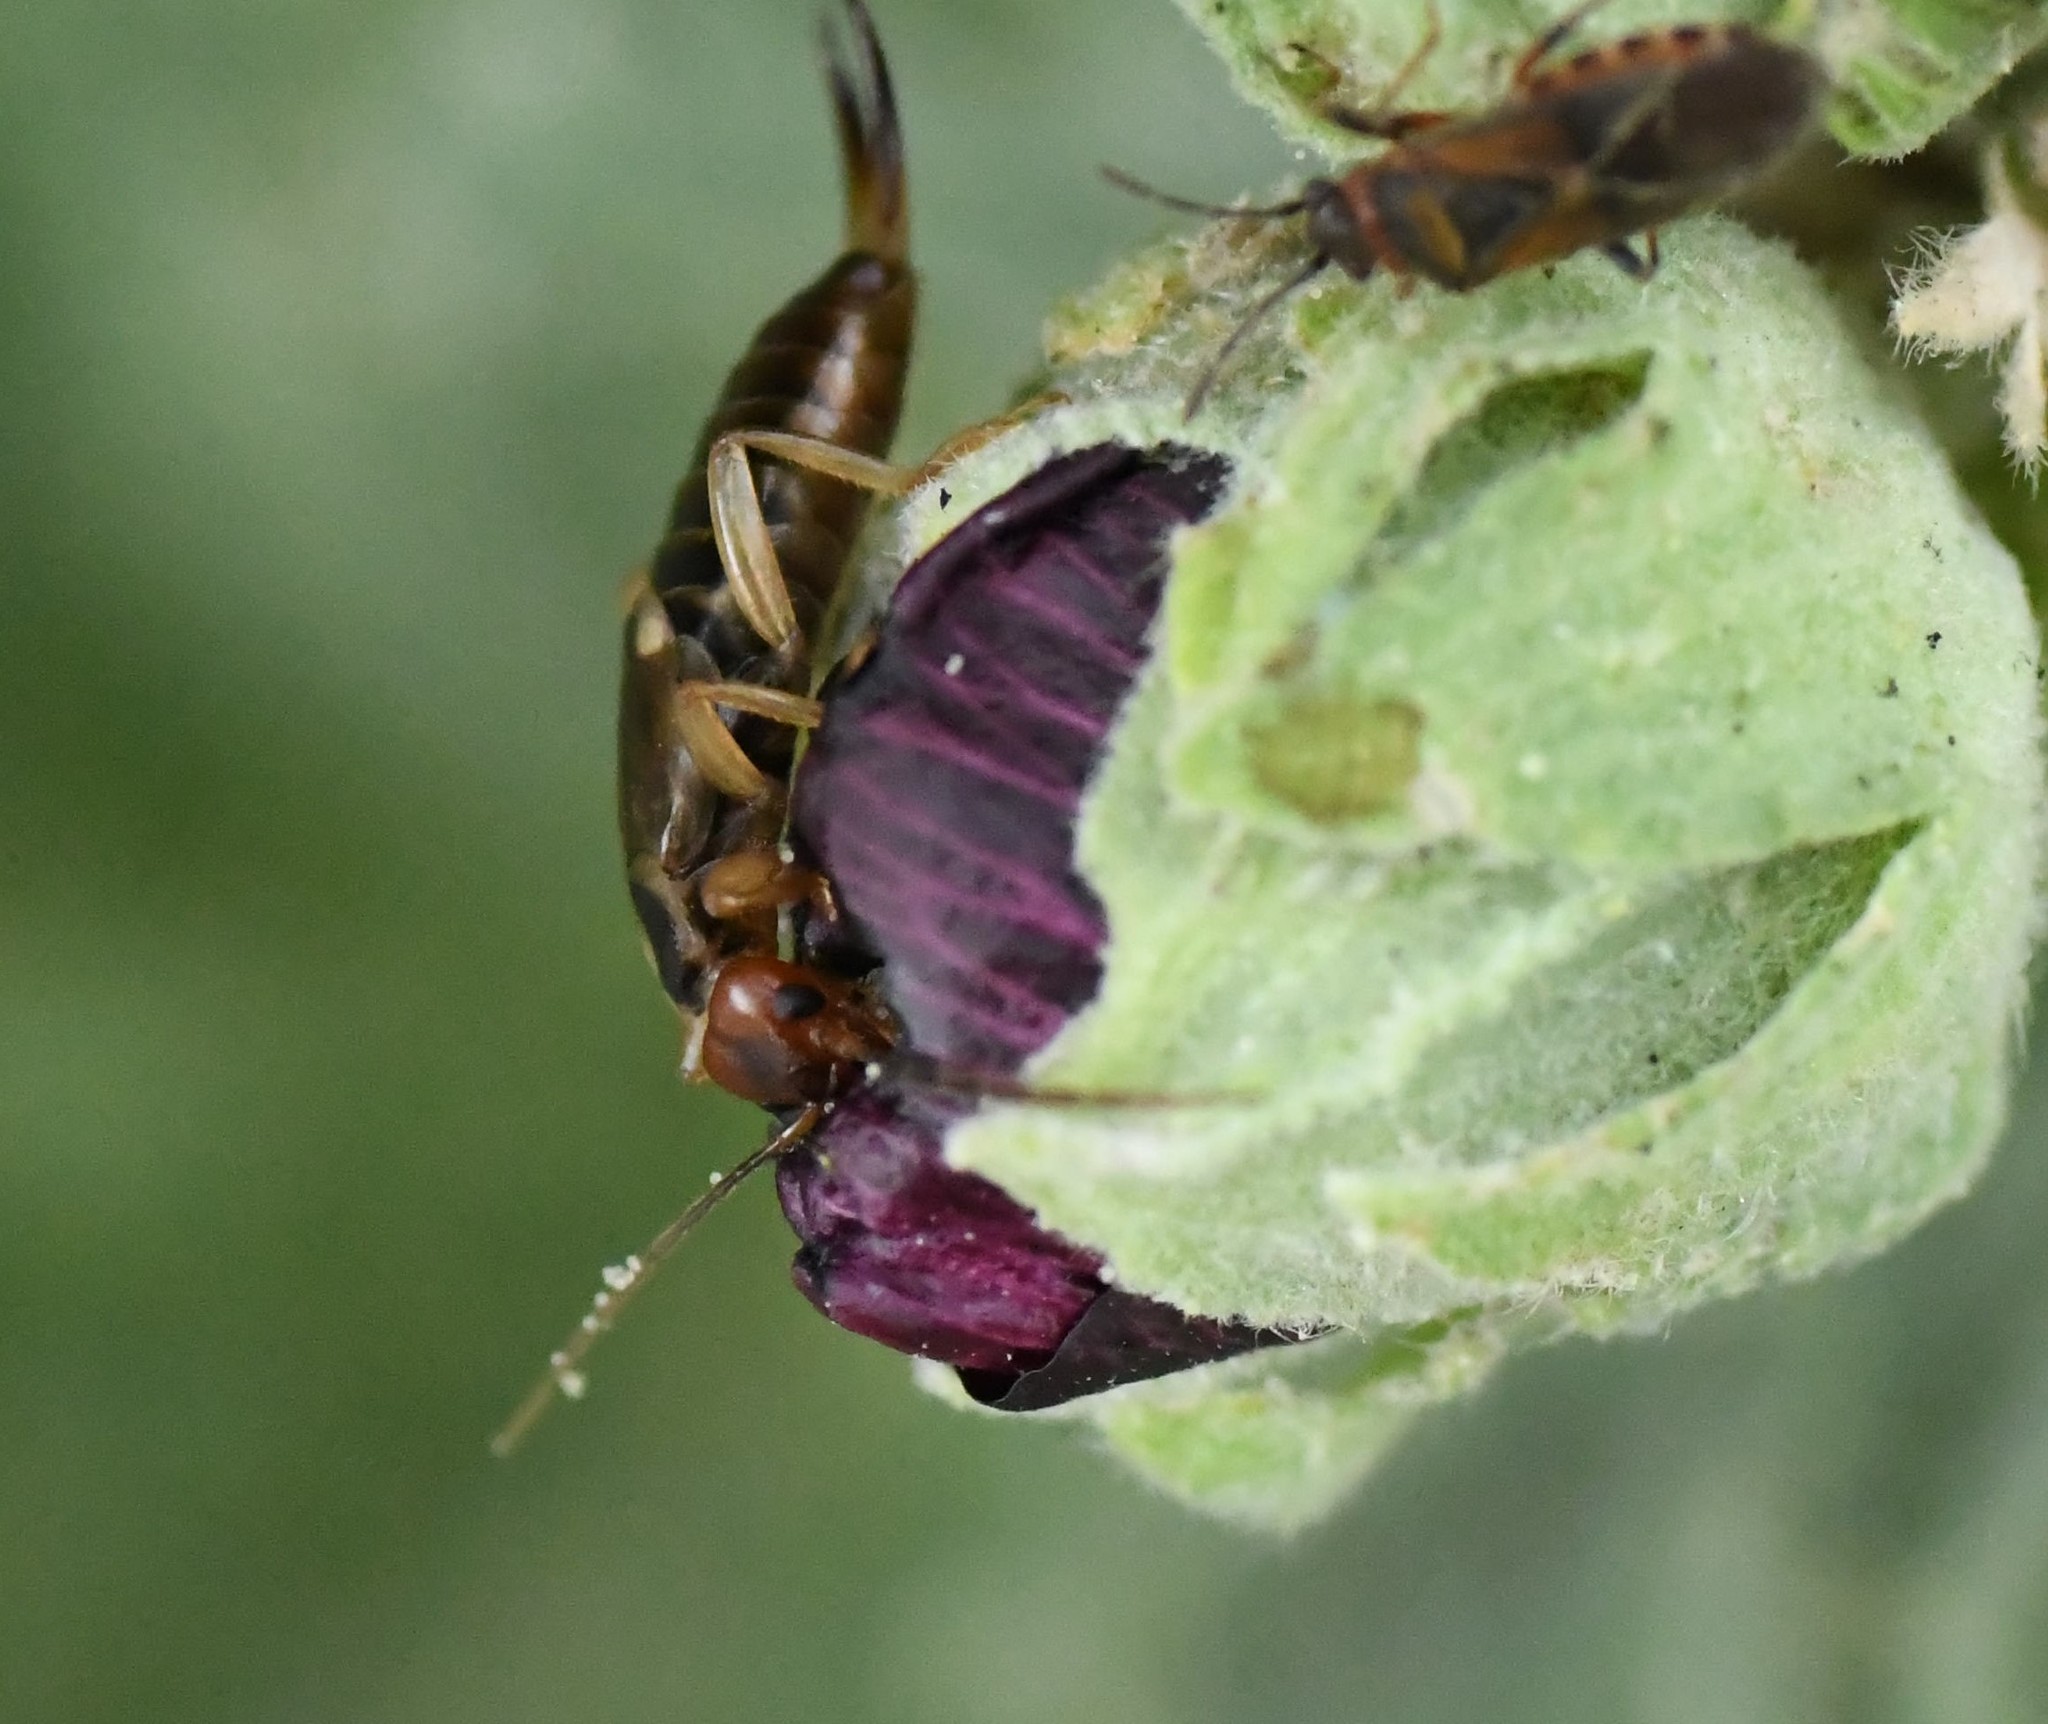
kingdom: Animalia
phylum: Arthropoda
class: Insecta
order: Dermaptera
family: Forficulidae
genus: Forficula
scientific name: Forficula
